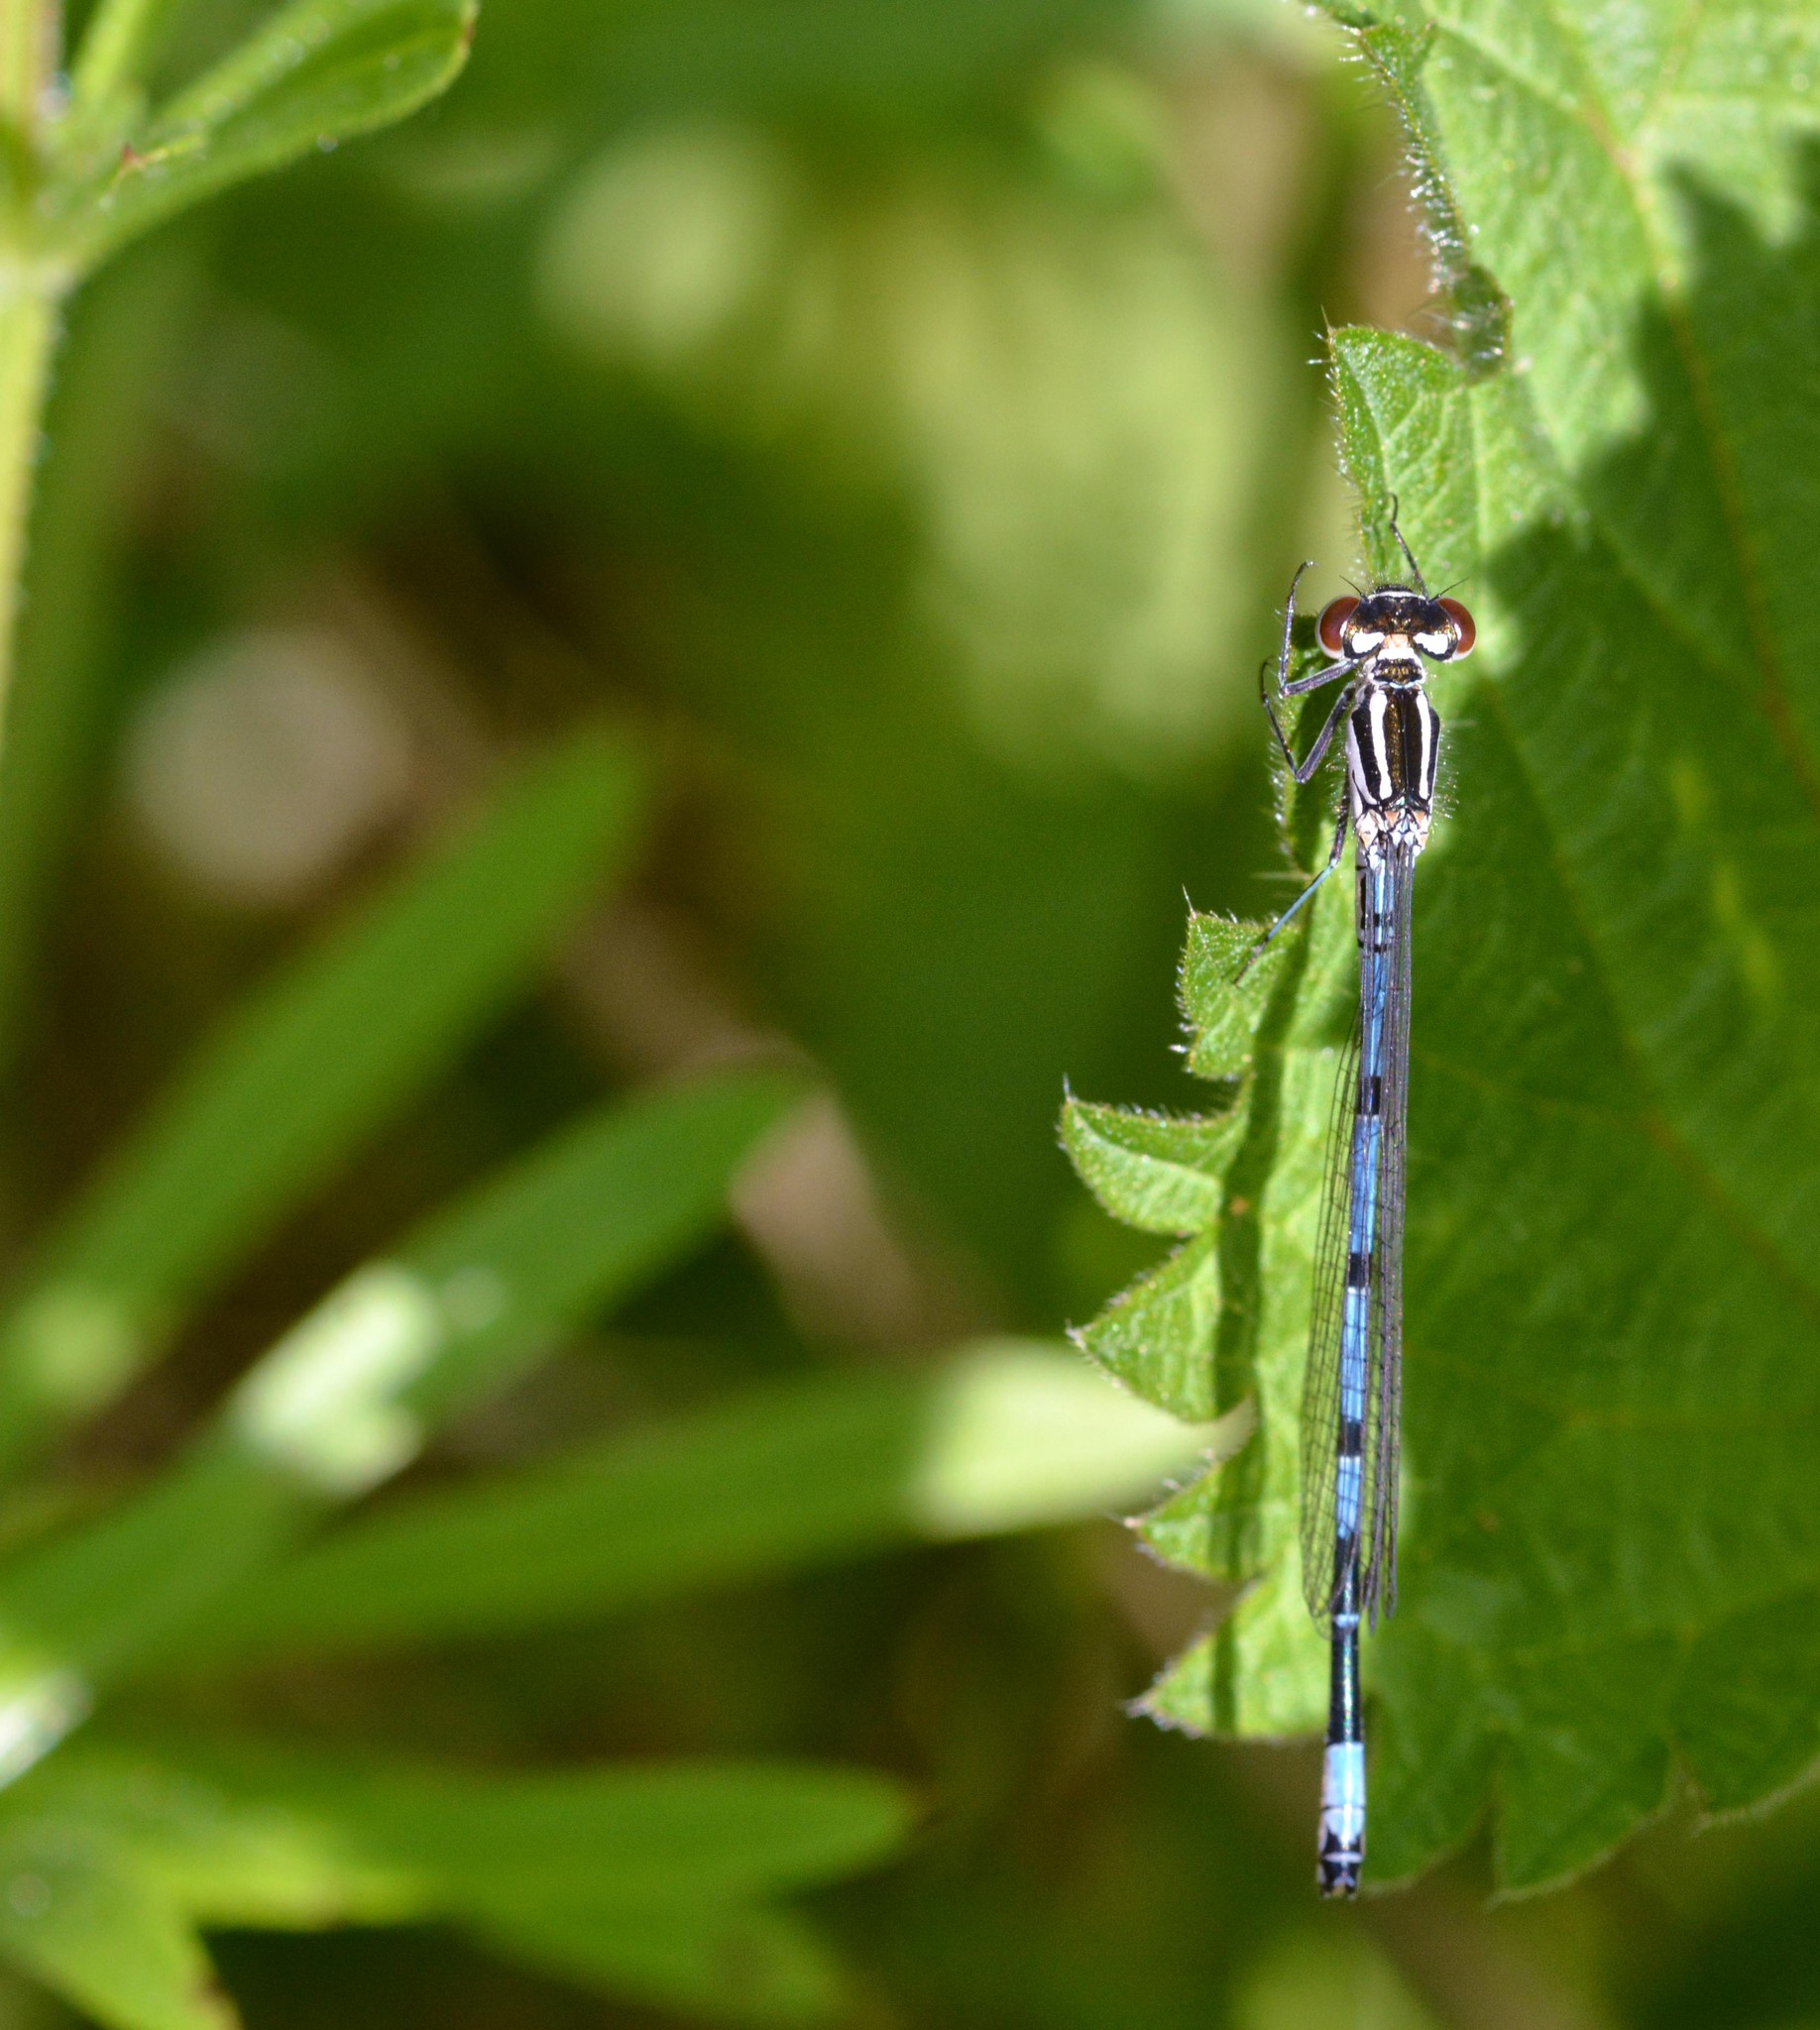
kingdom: Animalia
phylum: Arthropoda
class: Insecta
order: Odonata
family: Coenagrionidae
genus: Coenagrion
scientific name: Coenagrion puella
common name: Azure damselfly
